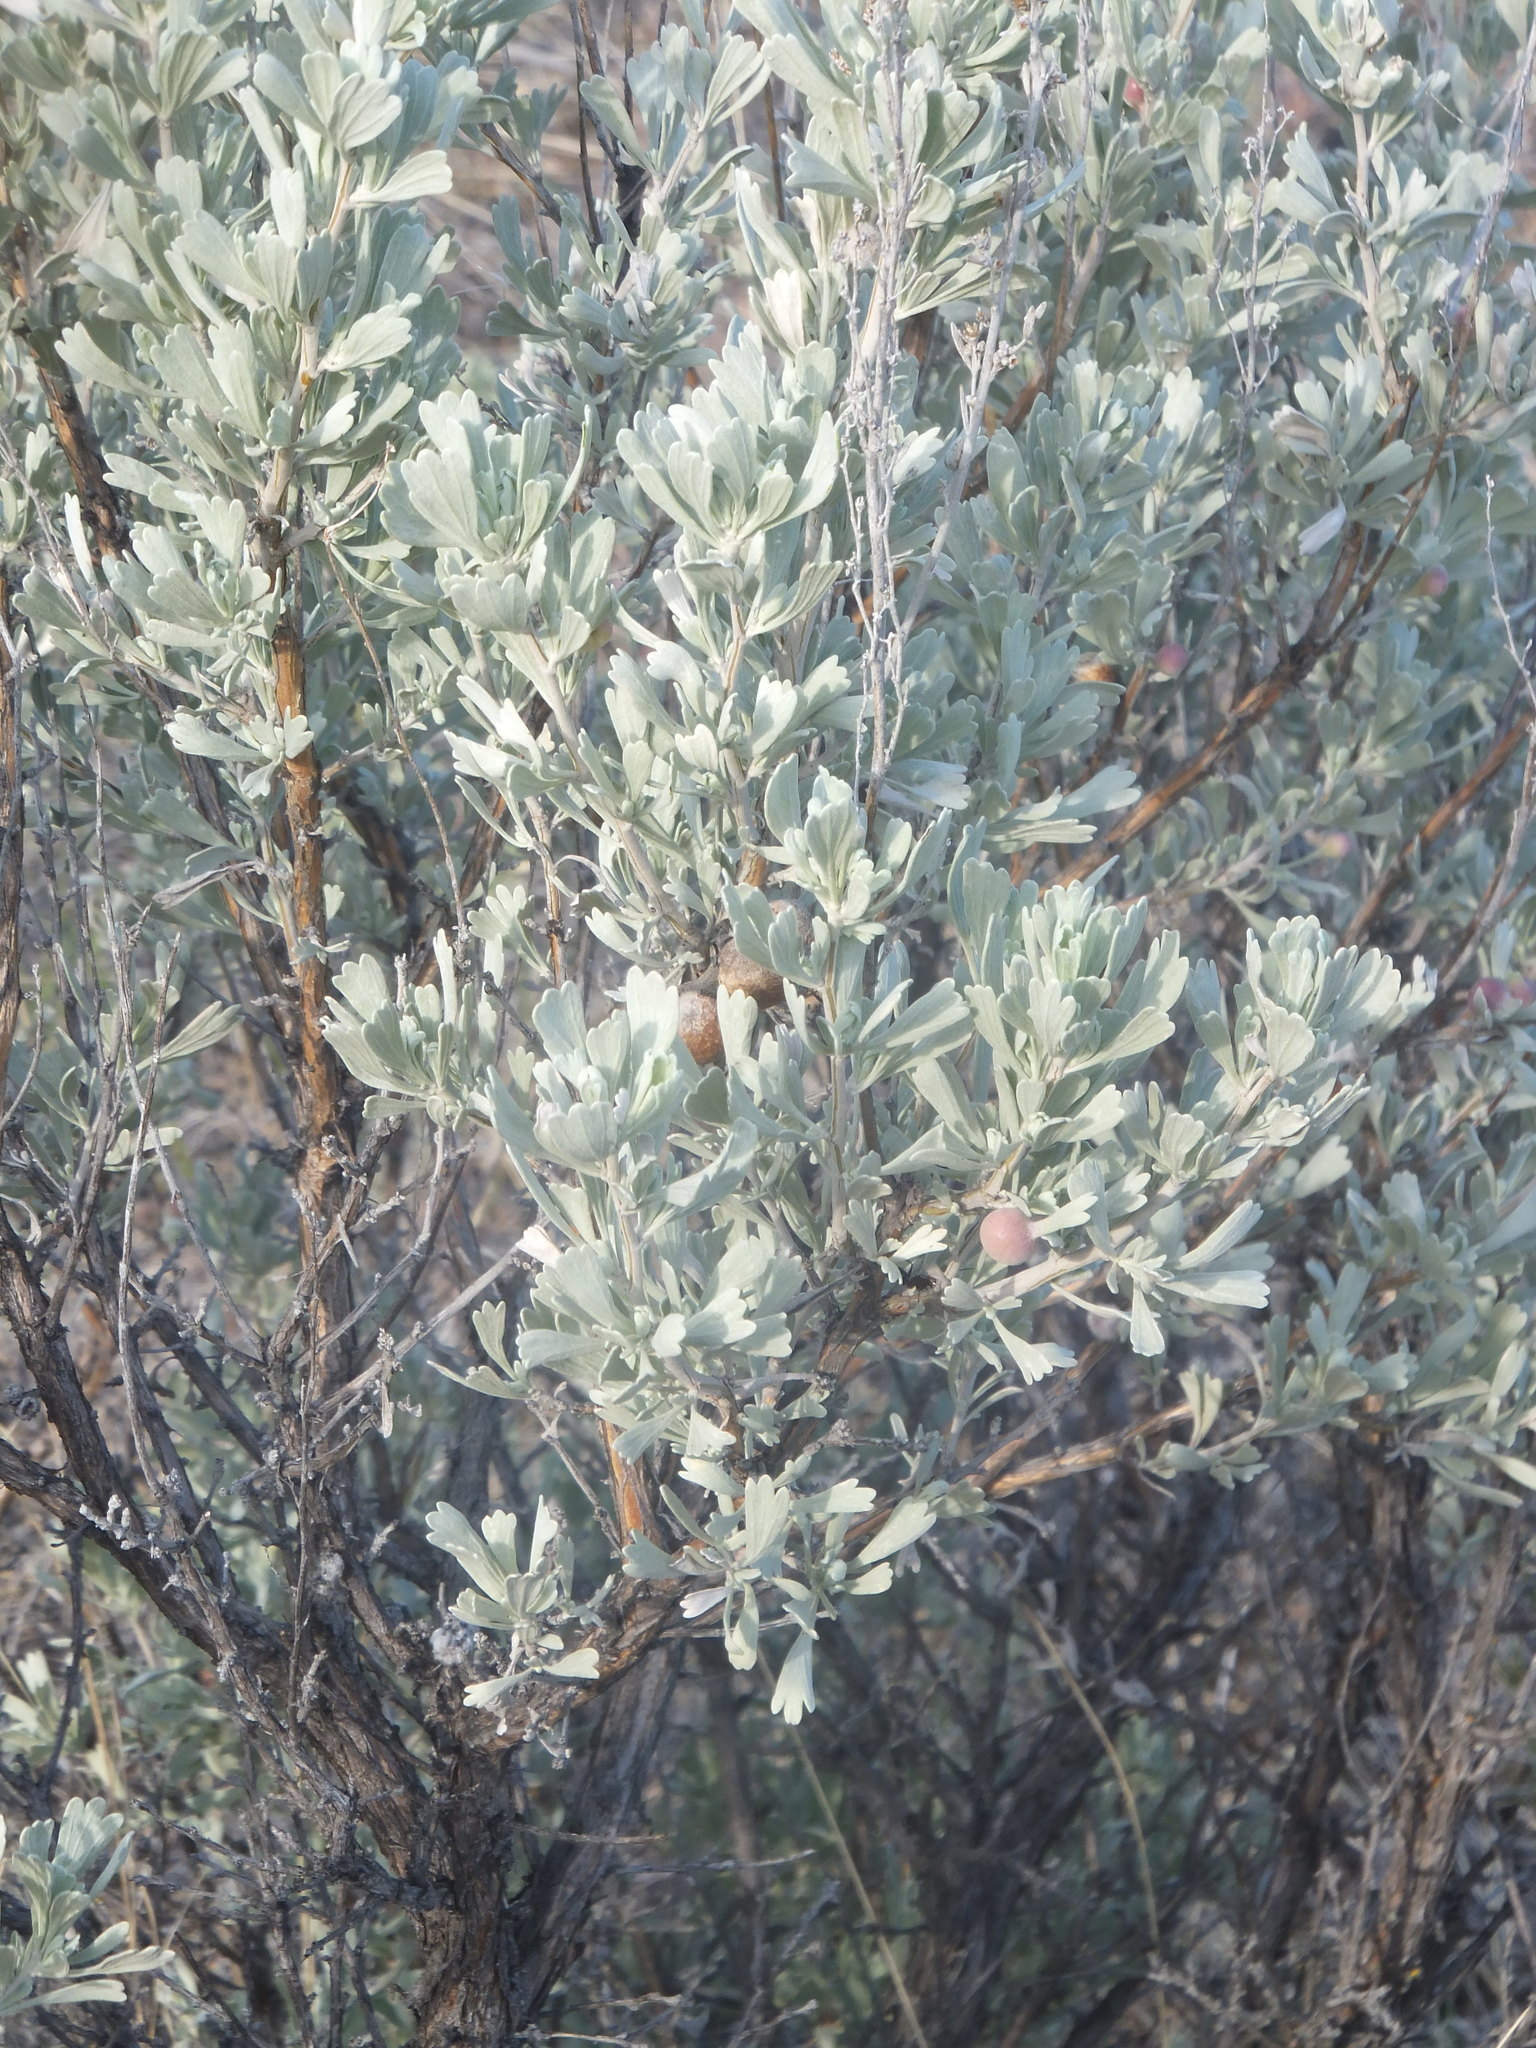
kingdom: Plantae
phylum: Tracheophyta
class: Magnoliopsida
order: Asterales
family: Asteraceae
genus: Artemisia
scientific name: Artemisia tridentata
